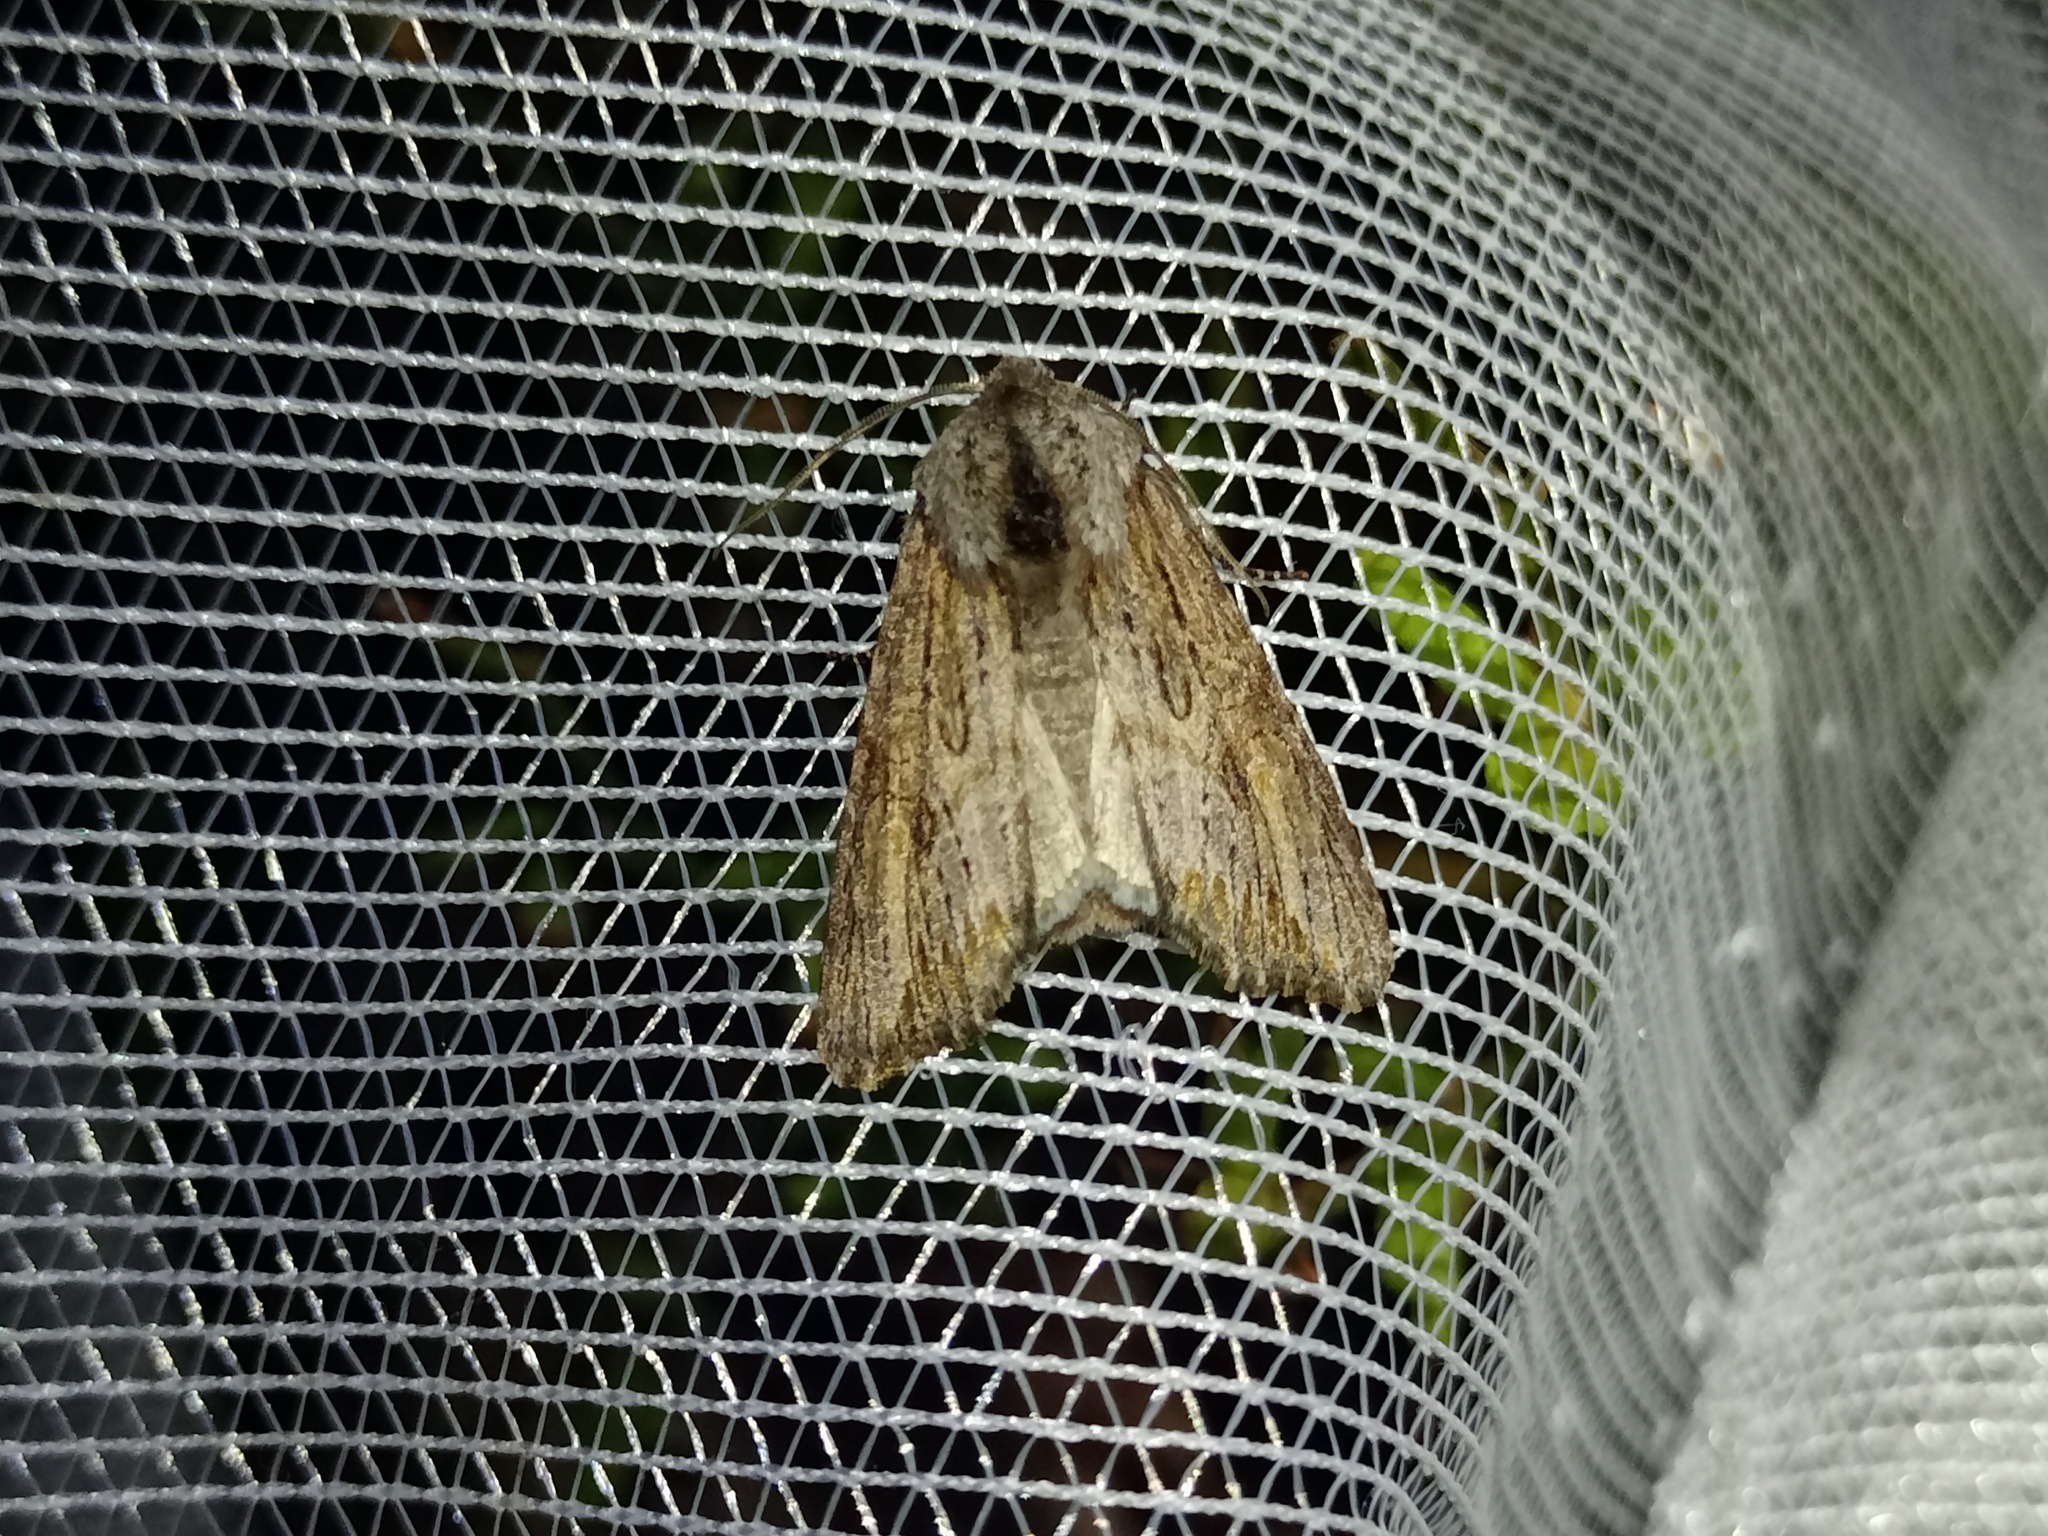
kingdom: Animalia
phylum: Arthropoda
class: Insecta
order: Lepidoptera
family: Noctuidae
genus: Egira
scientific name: Egira conspicillaris
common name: Silver cloud
